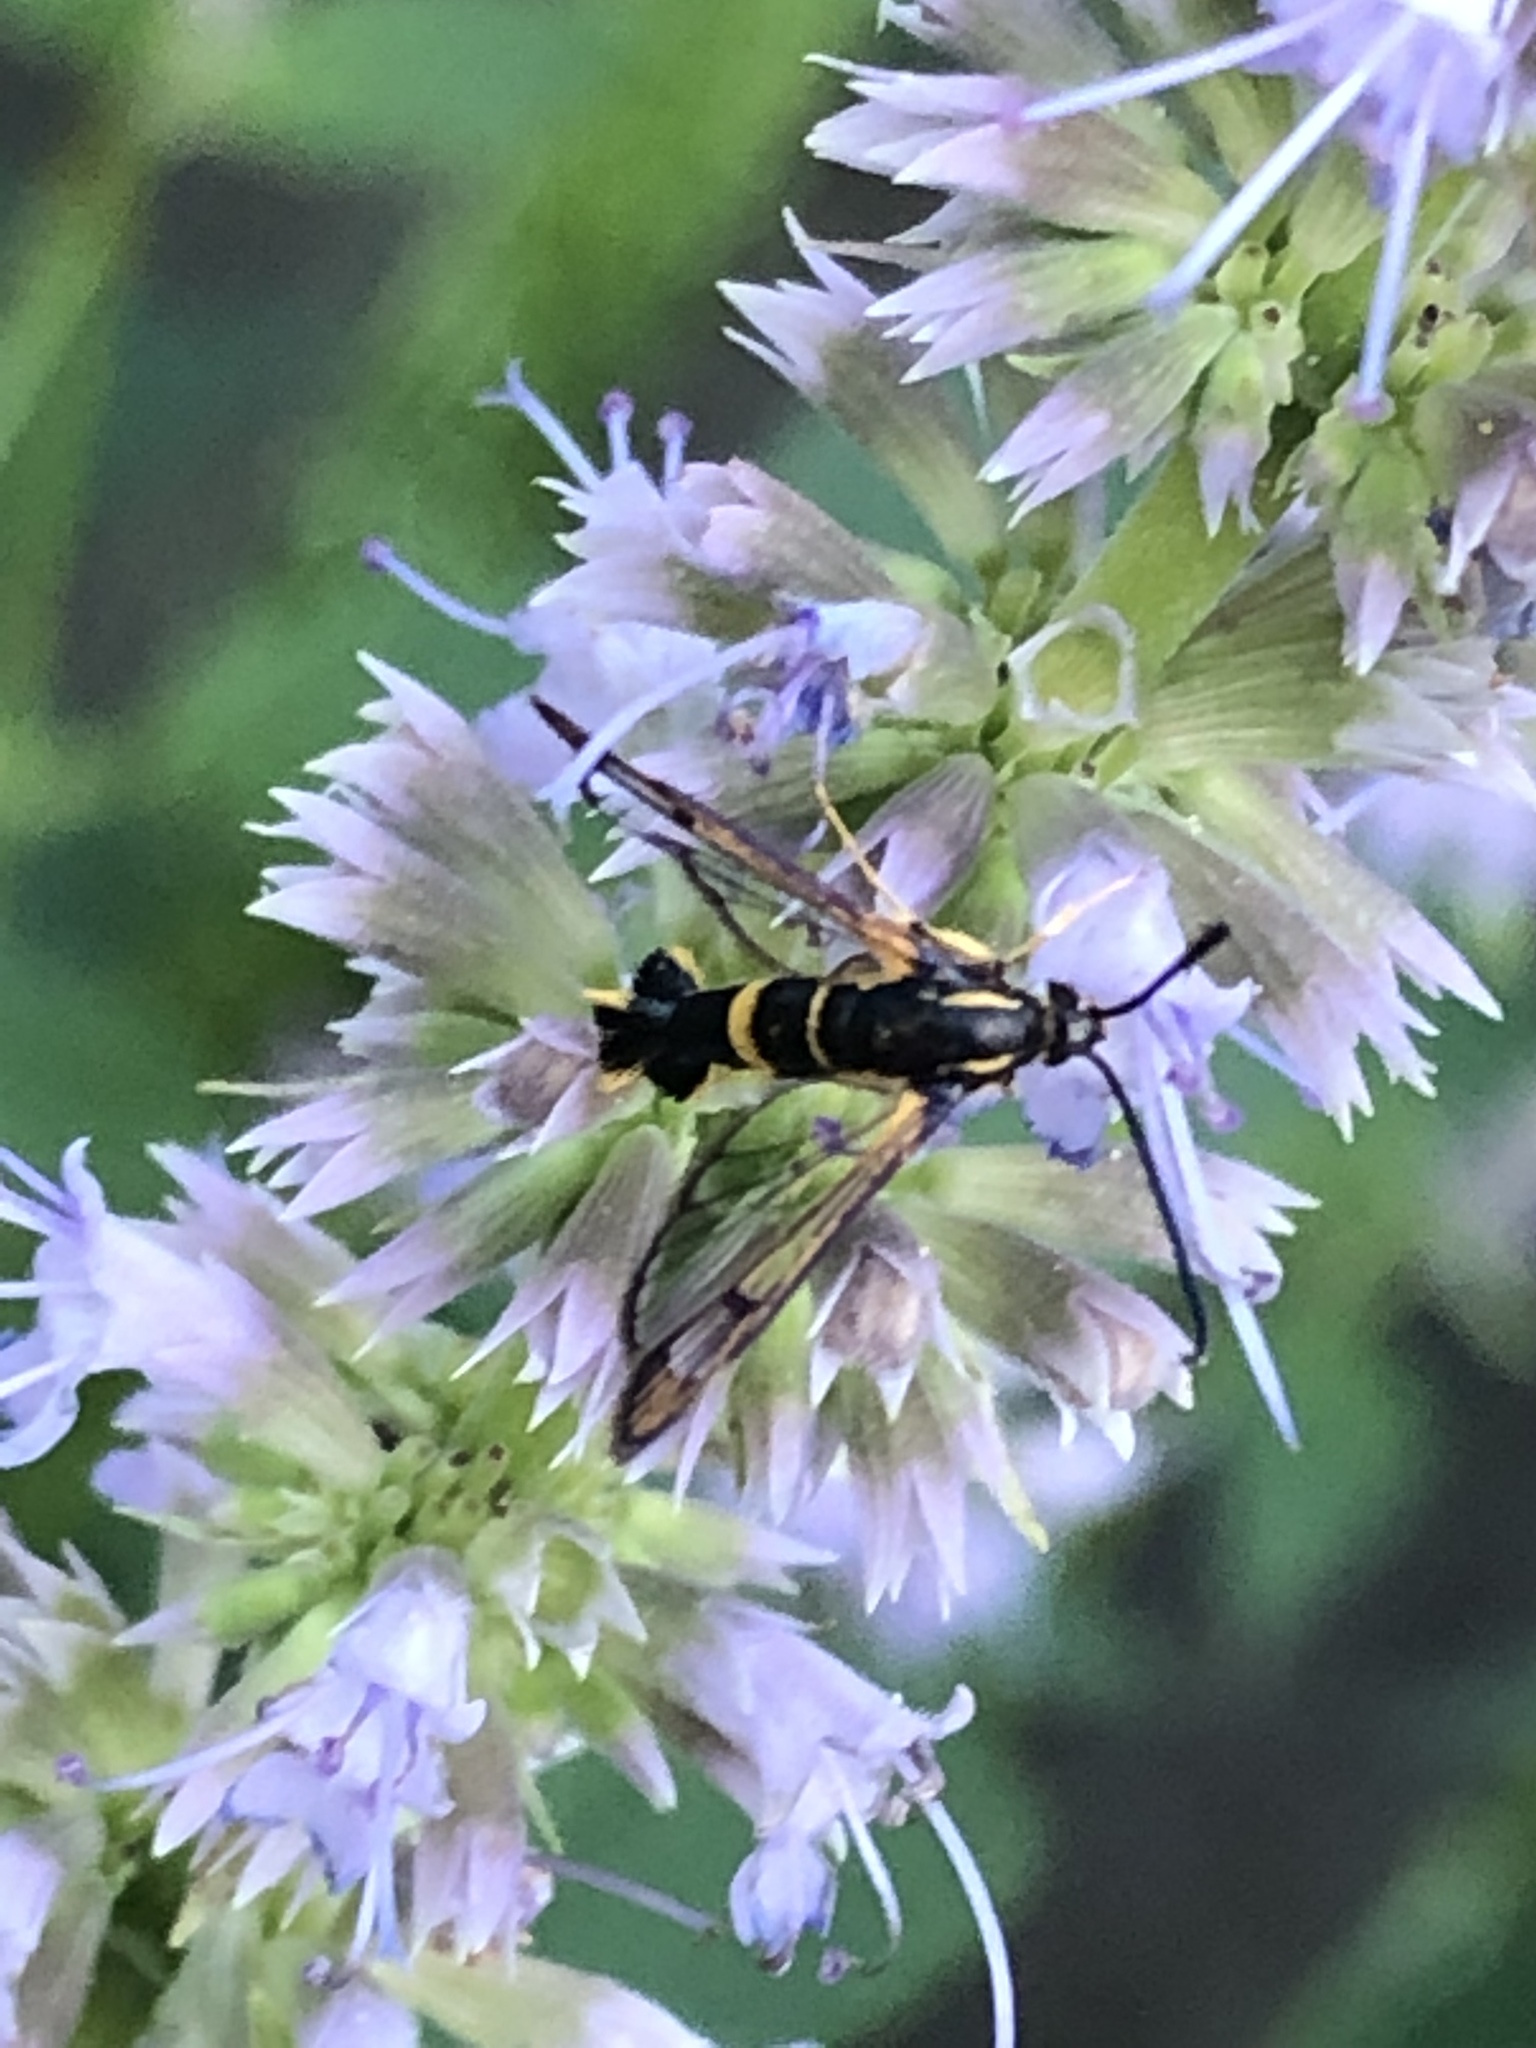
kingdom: Animalia
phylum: Arthropoda
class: Insecta
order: Lepidoptera
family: Sesiidae
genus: Synanthedon
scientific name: Synanthedon scitula
